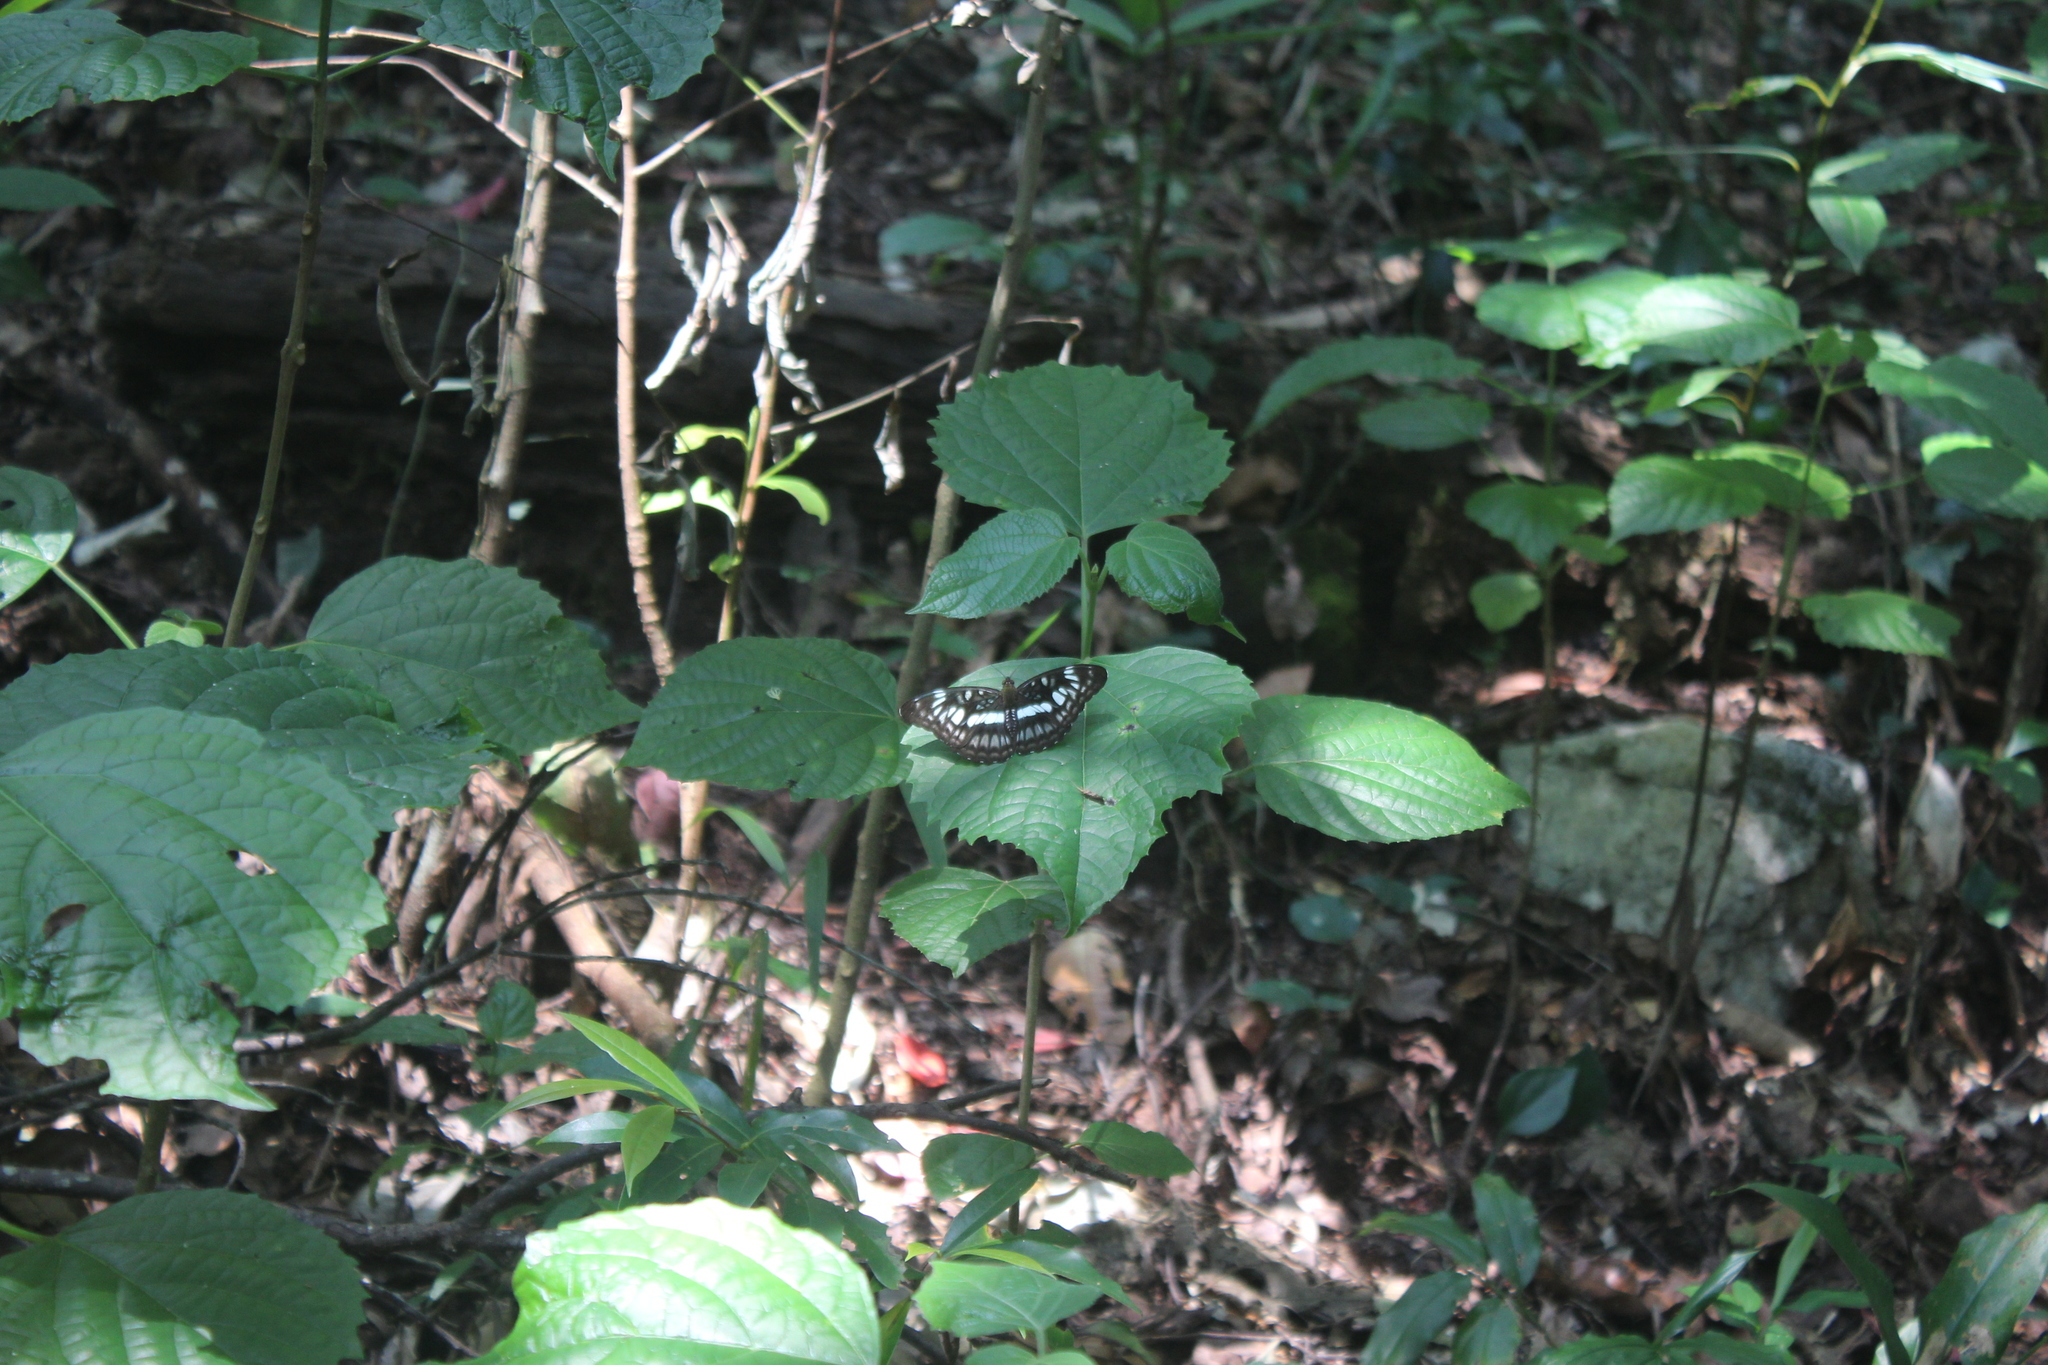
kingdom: Animalia
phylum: Arthropoda
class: Insecta
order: Lepidoptera
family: Nymphalidae
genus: Parathyma
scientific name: Parathyma ranga
